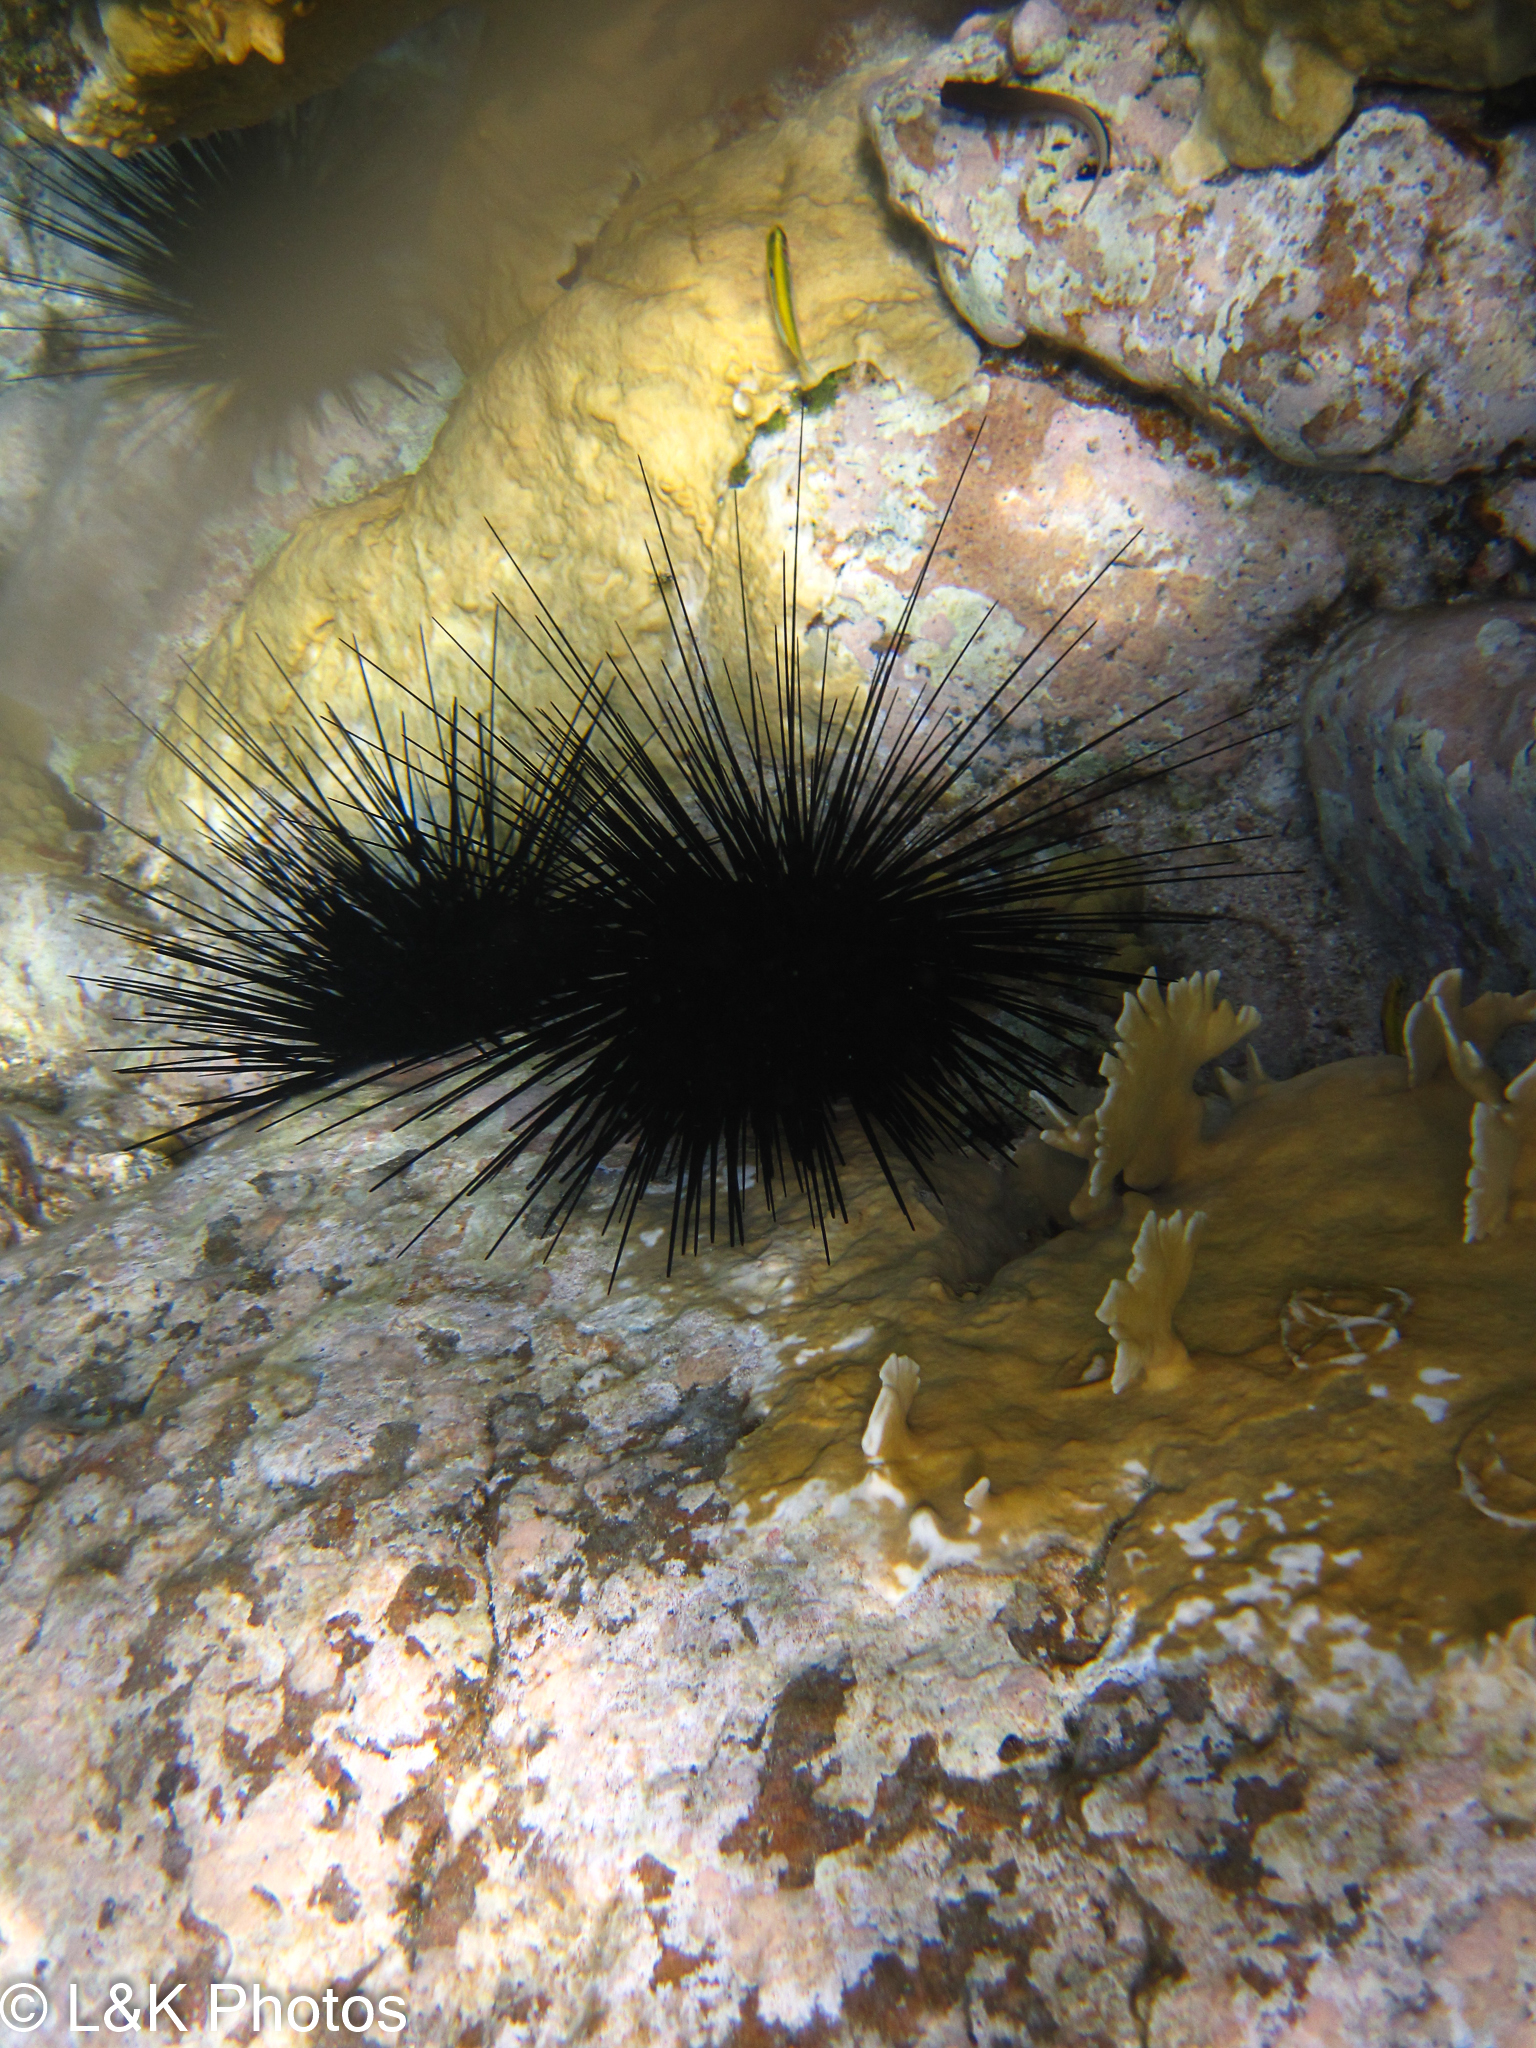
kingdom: Animalia
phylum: Echinodermata
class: Echinoidea
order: Diadematoida
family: Diadematidae
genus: Diadema
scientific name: Diadema antillarum
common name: Spiny urchin
